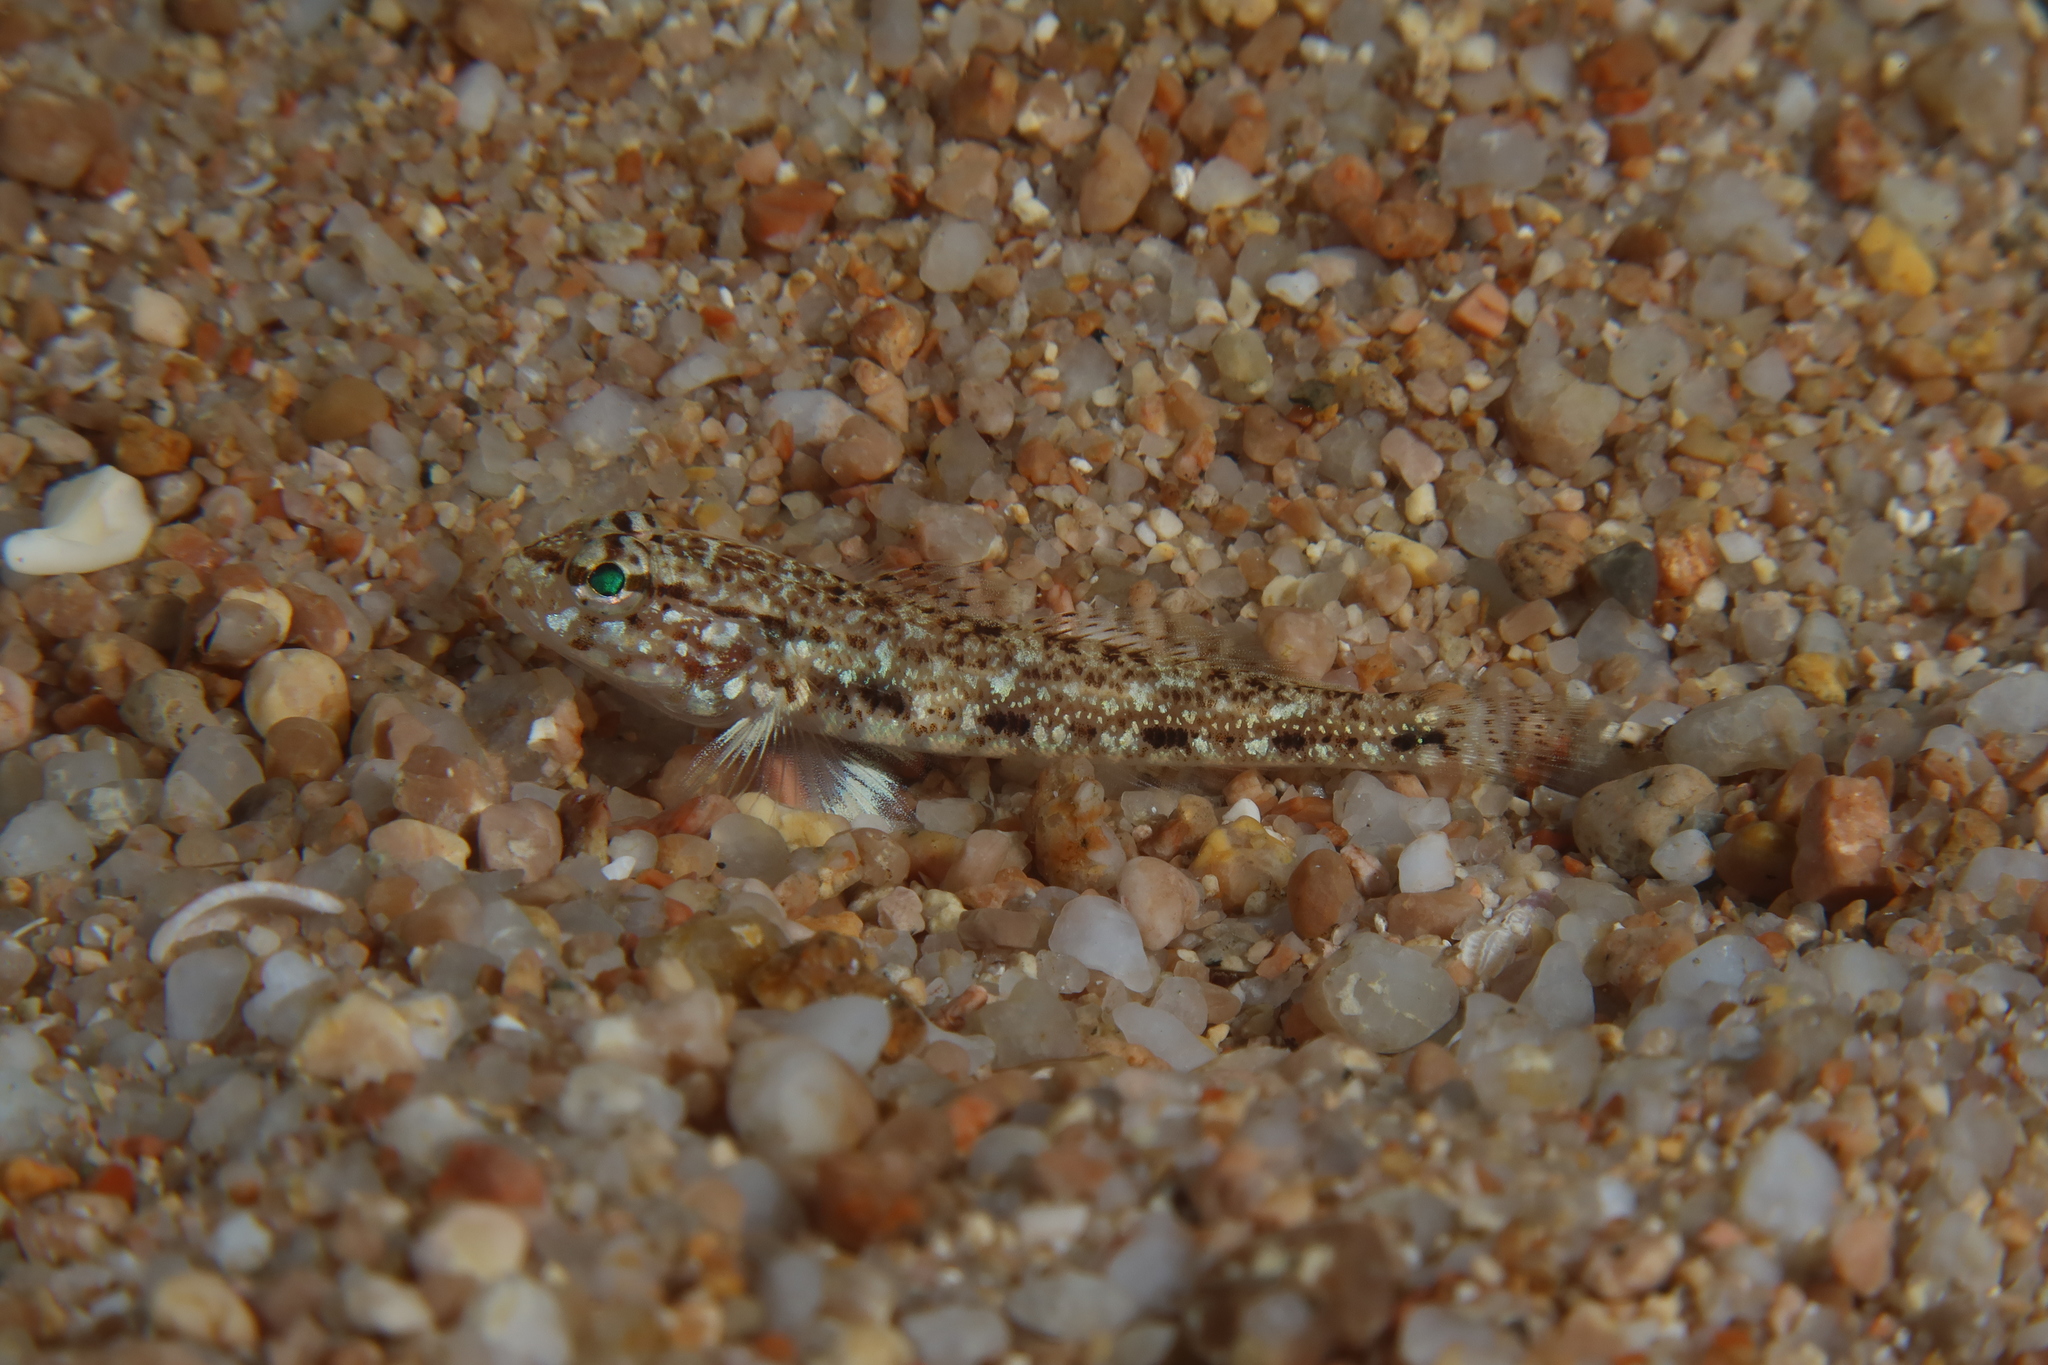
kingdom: Animalia
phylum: Chordata
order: Perciformes
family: Gobiidae
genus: Gobius
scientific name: Gobius geniporus
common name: Slender goby
